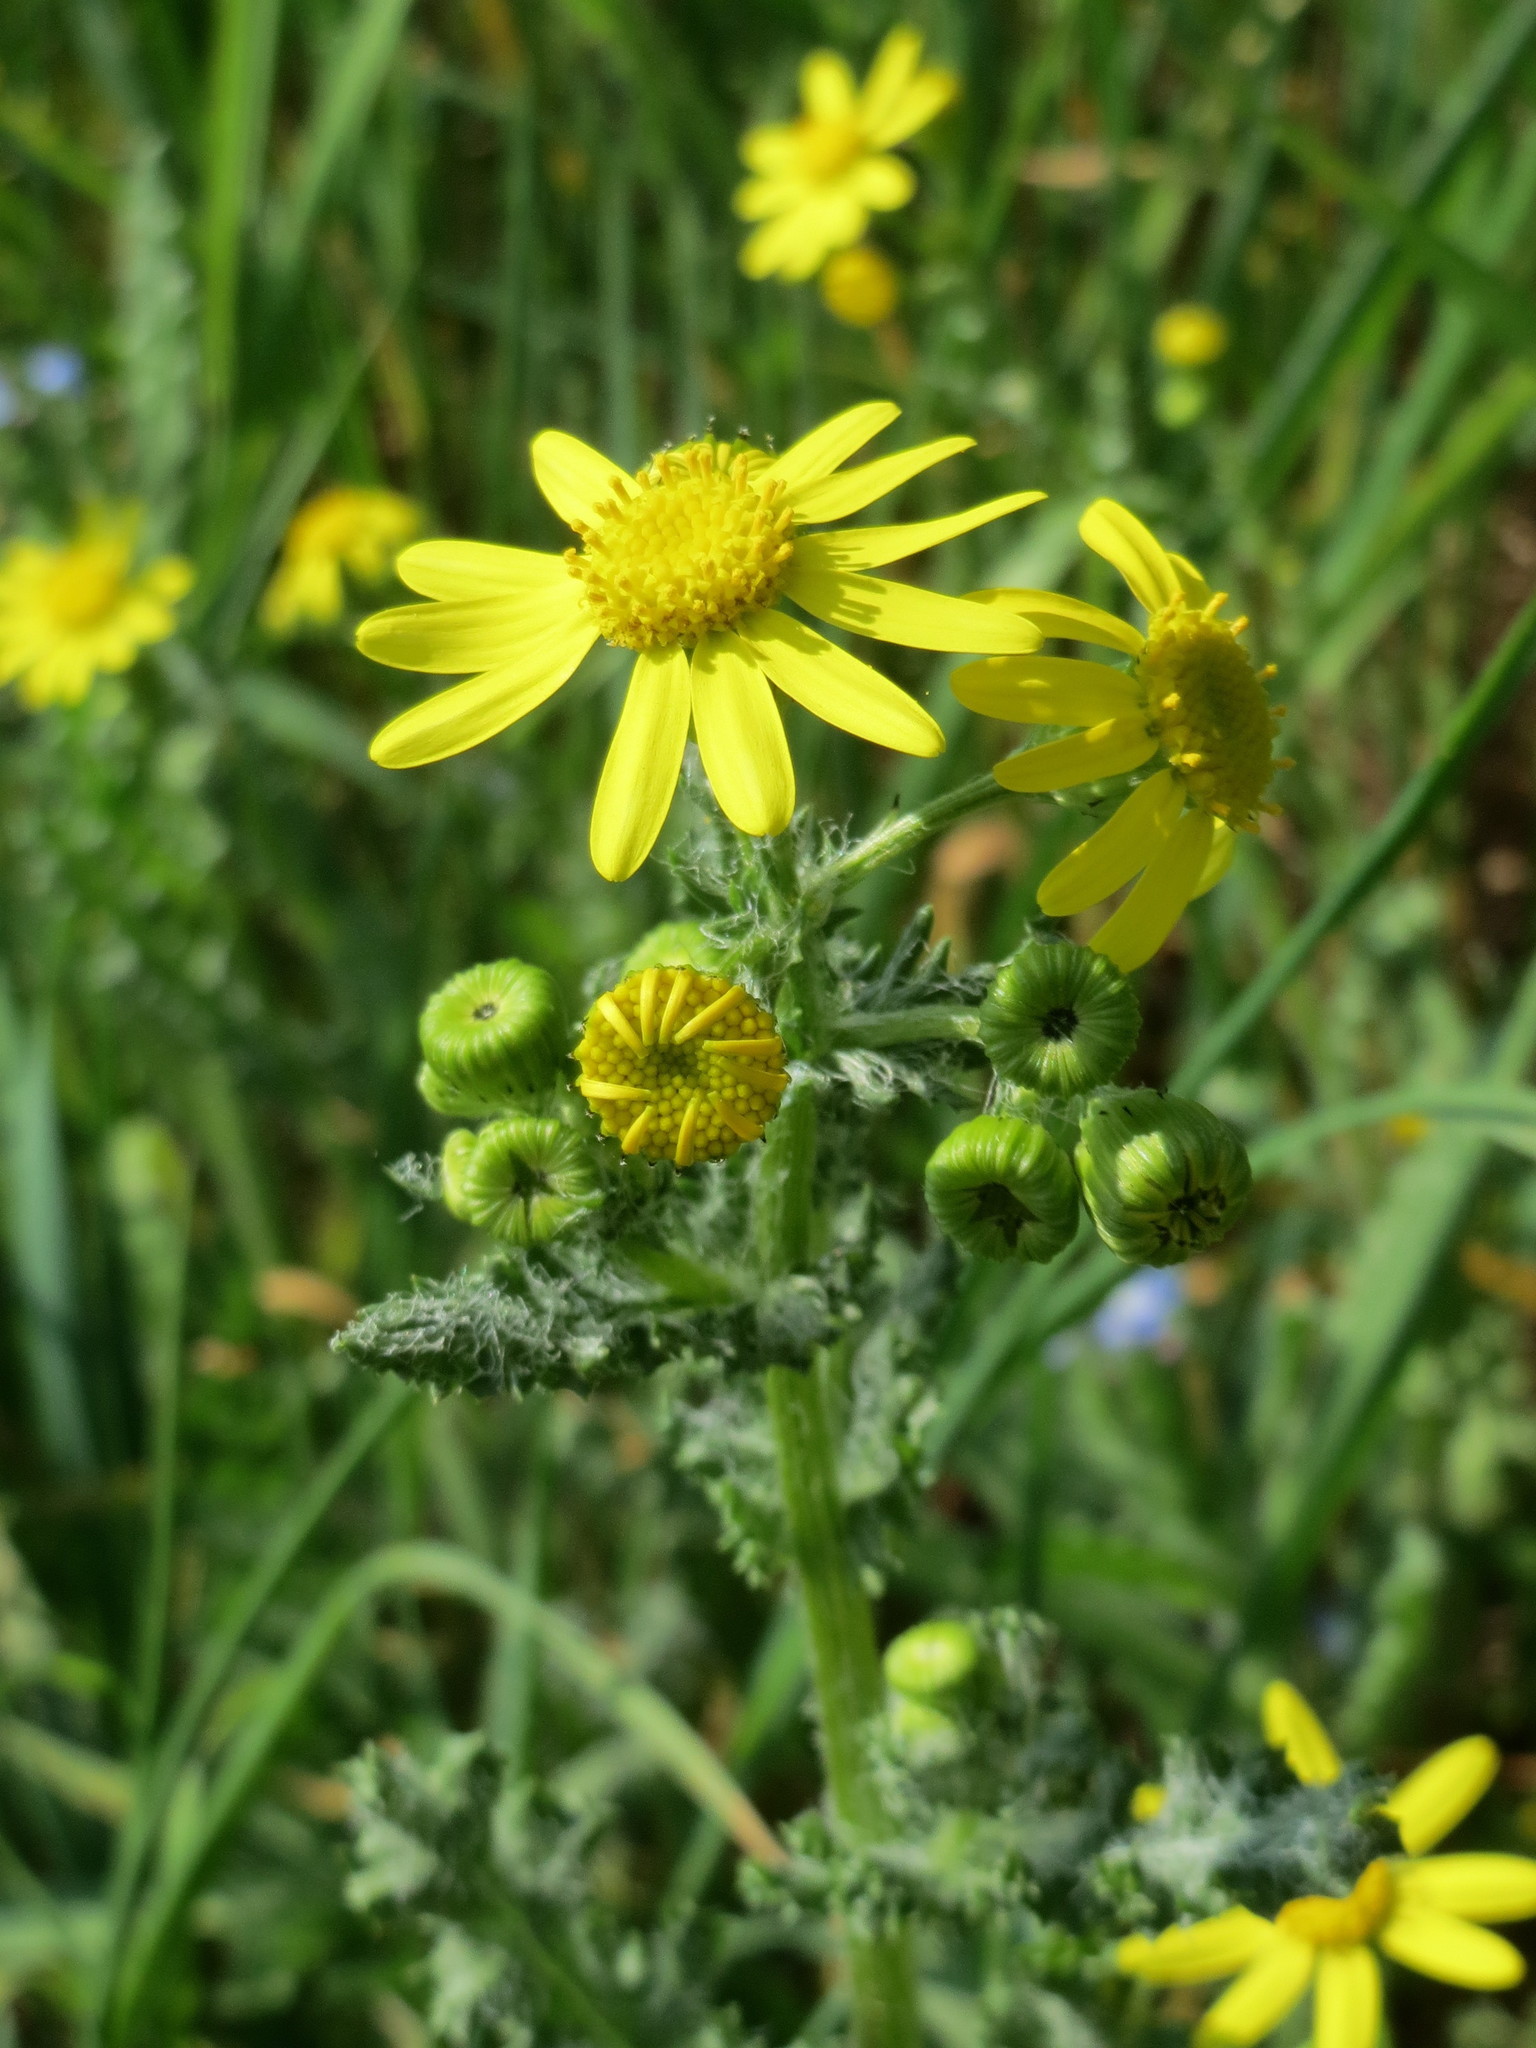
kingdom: Plantae
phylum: Tracheophyta
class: Magnoliopsida
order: Asterales
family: Asteraceae
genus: Senecio
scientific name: Senecio vernalis
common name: Eastern groundsel
